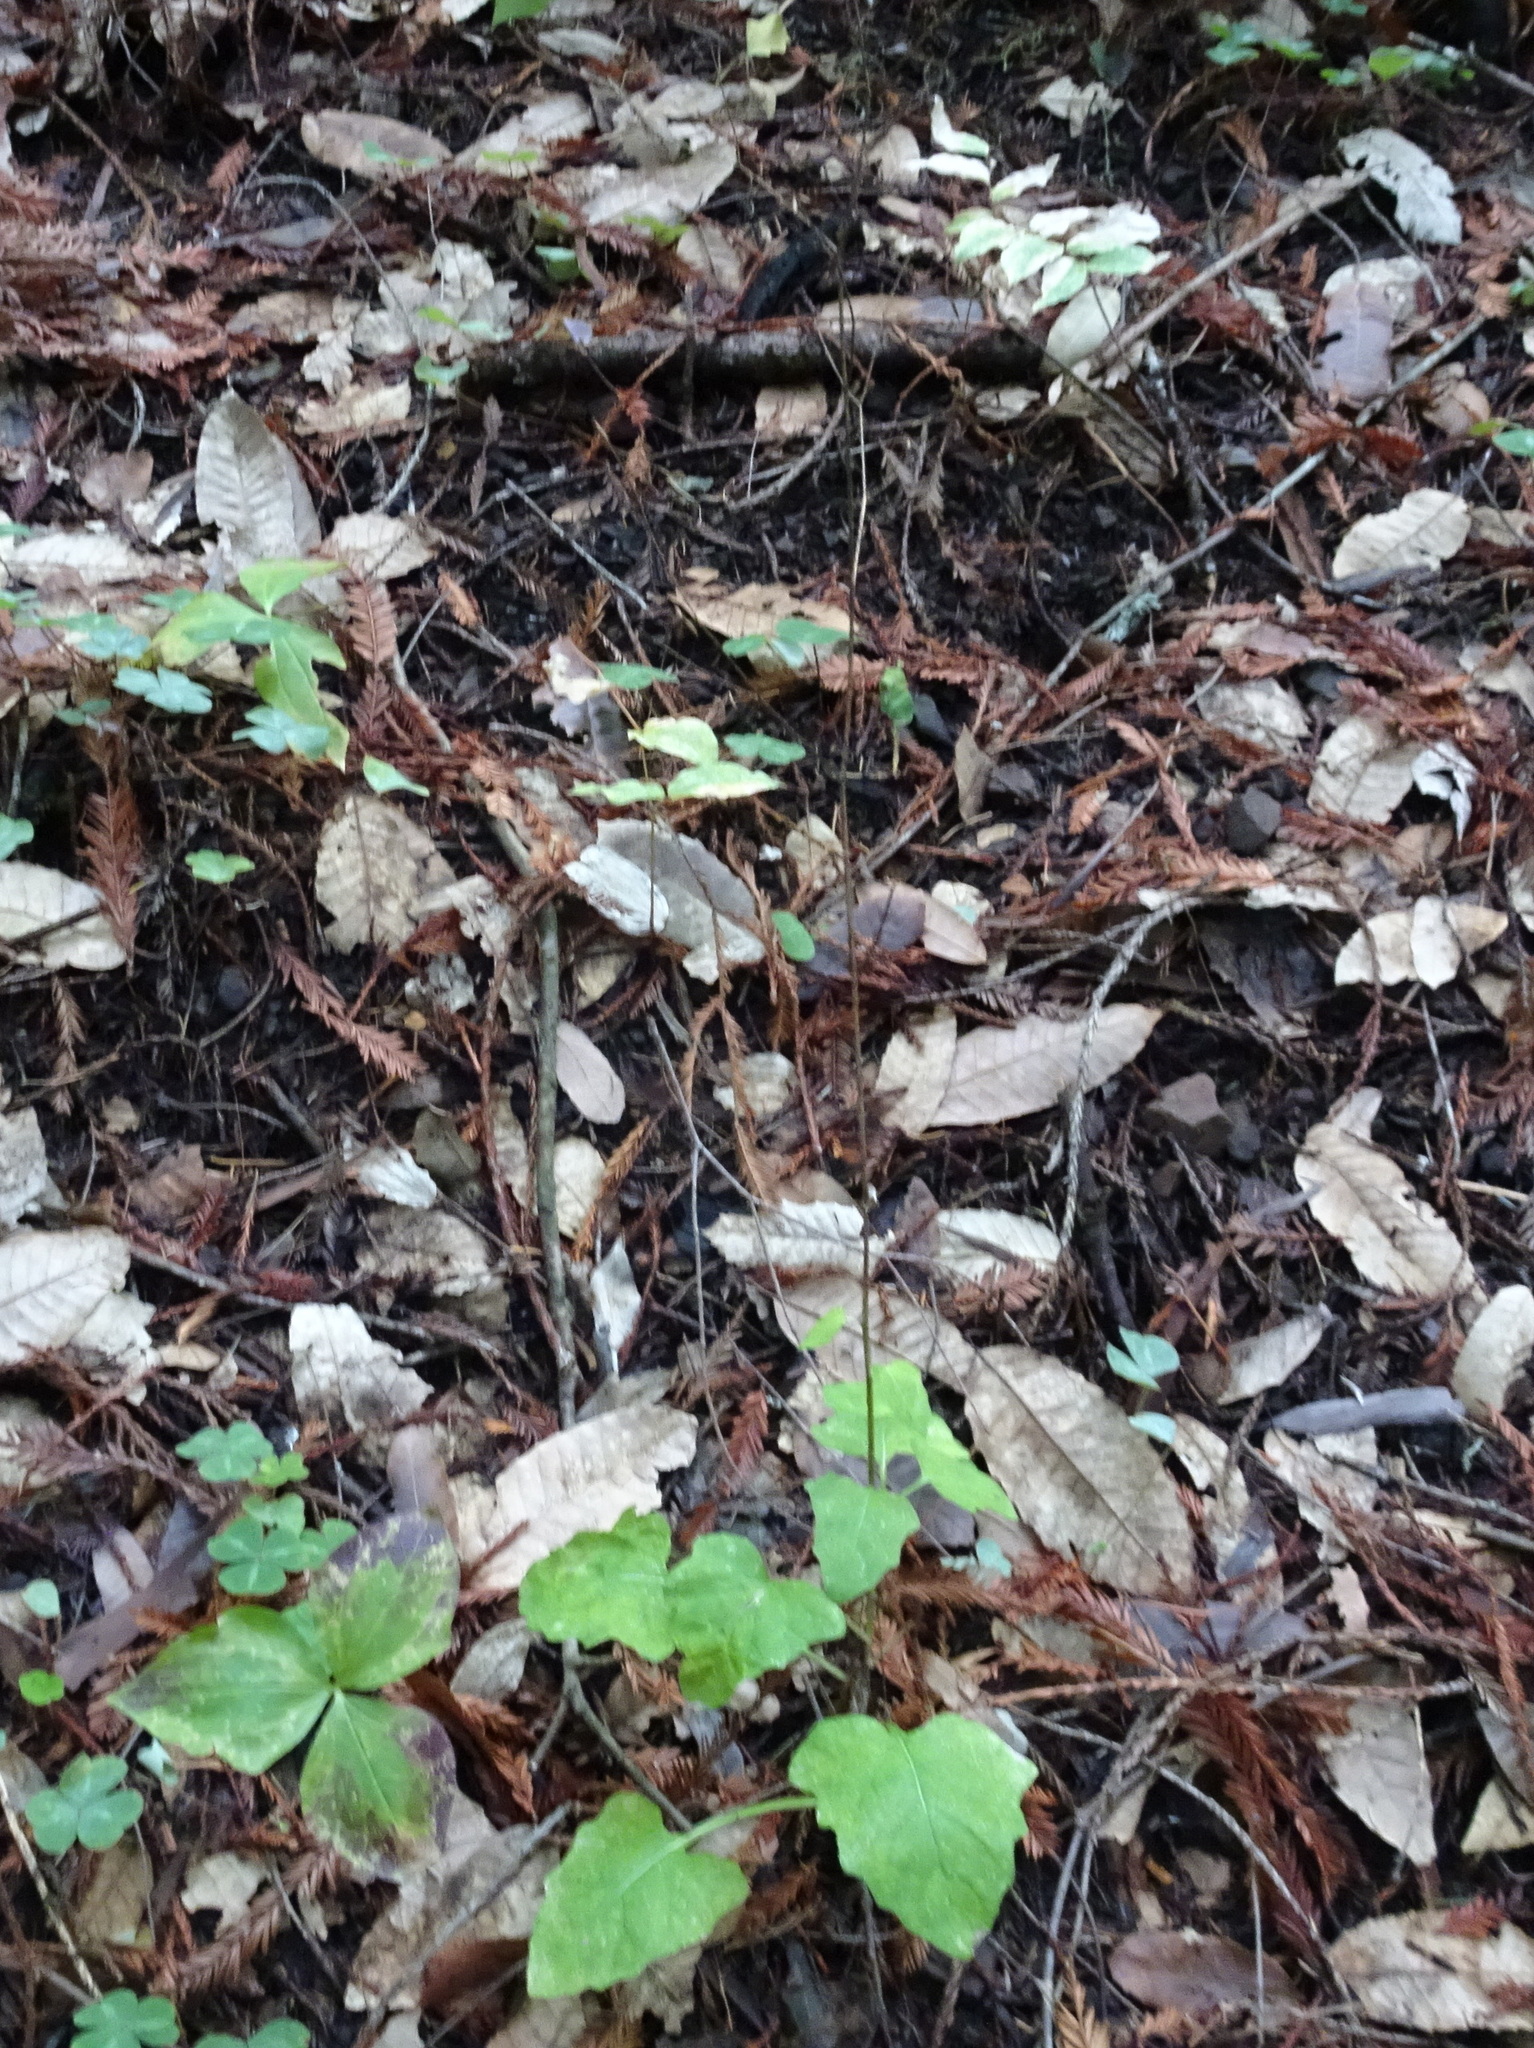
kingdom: Plantae
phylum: Tracheophyta
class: Magnoliopsida
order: Asterales
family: Asteraceae
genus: Adenocaulon
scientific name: Adenocaulon bicolor
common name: Trailplant
